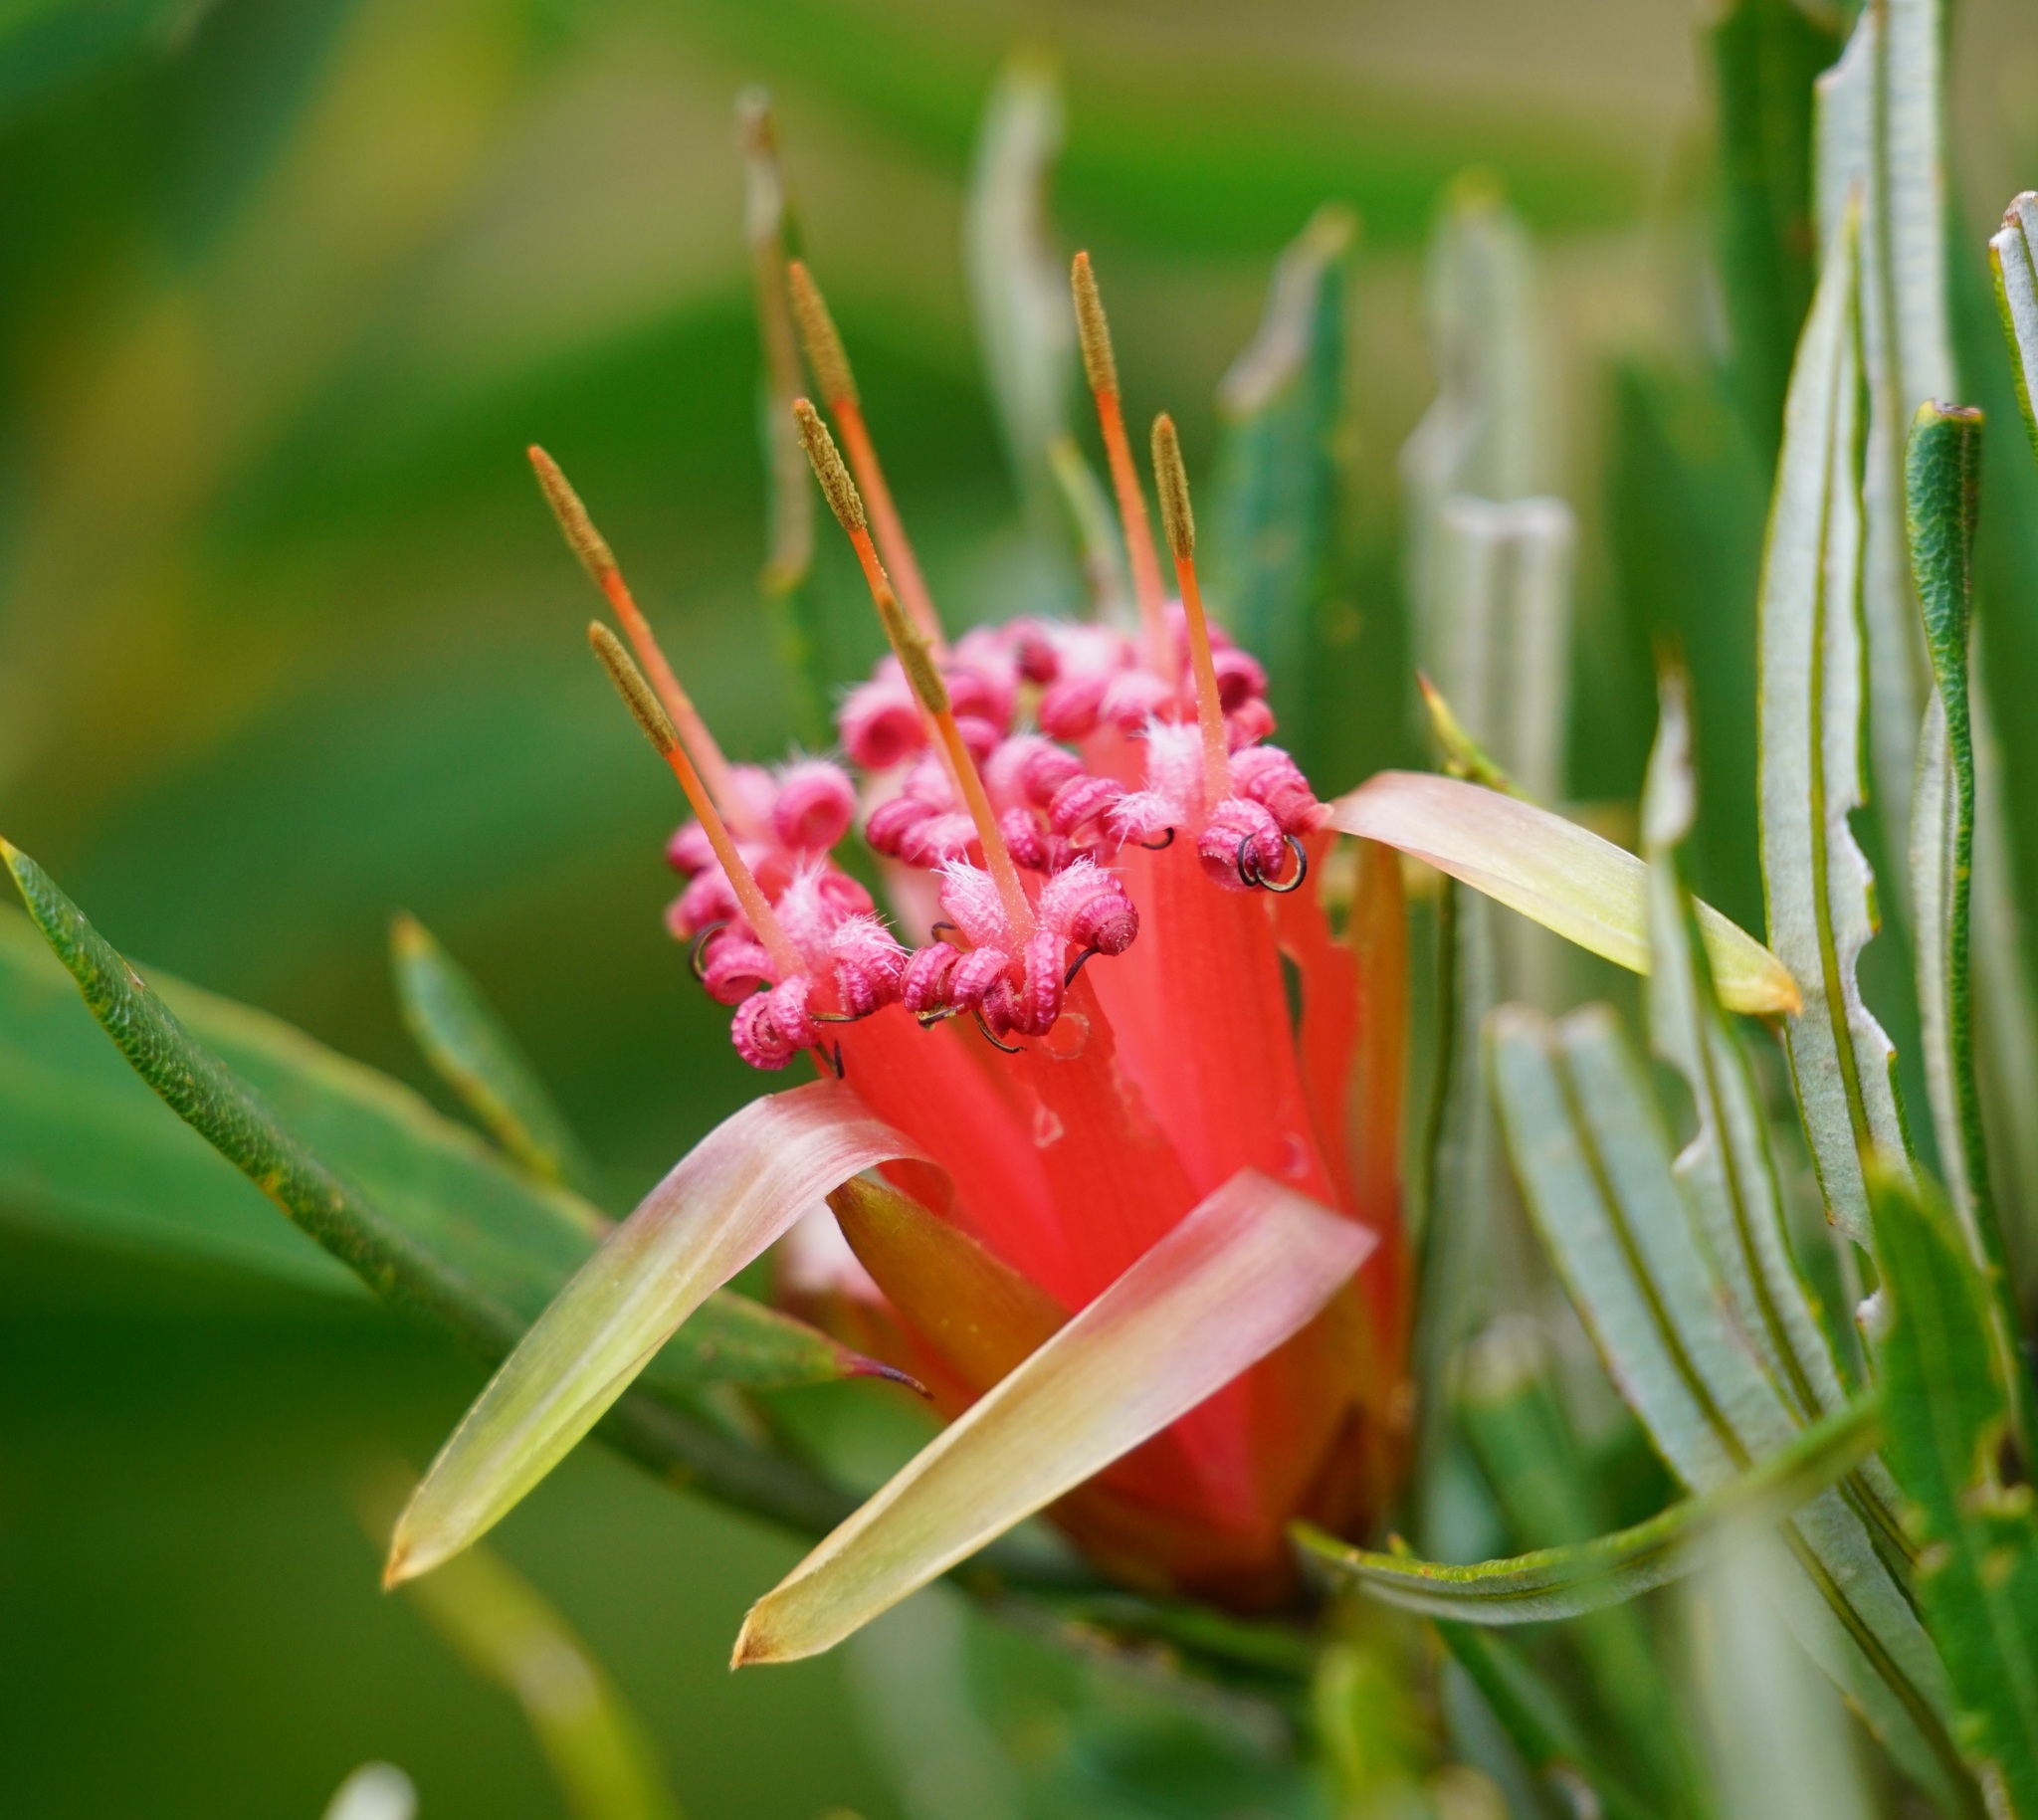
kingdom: Plantae
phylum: Tracheophyta
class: Magnoliopsida
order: Proteales
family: Proteaceae
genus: Lambertia
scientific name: Lambertia formosa
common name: Mountain-devil
